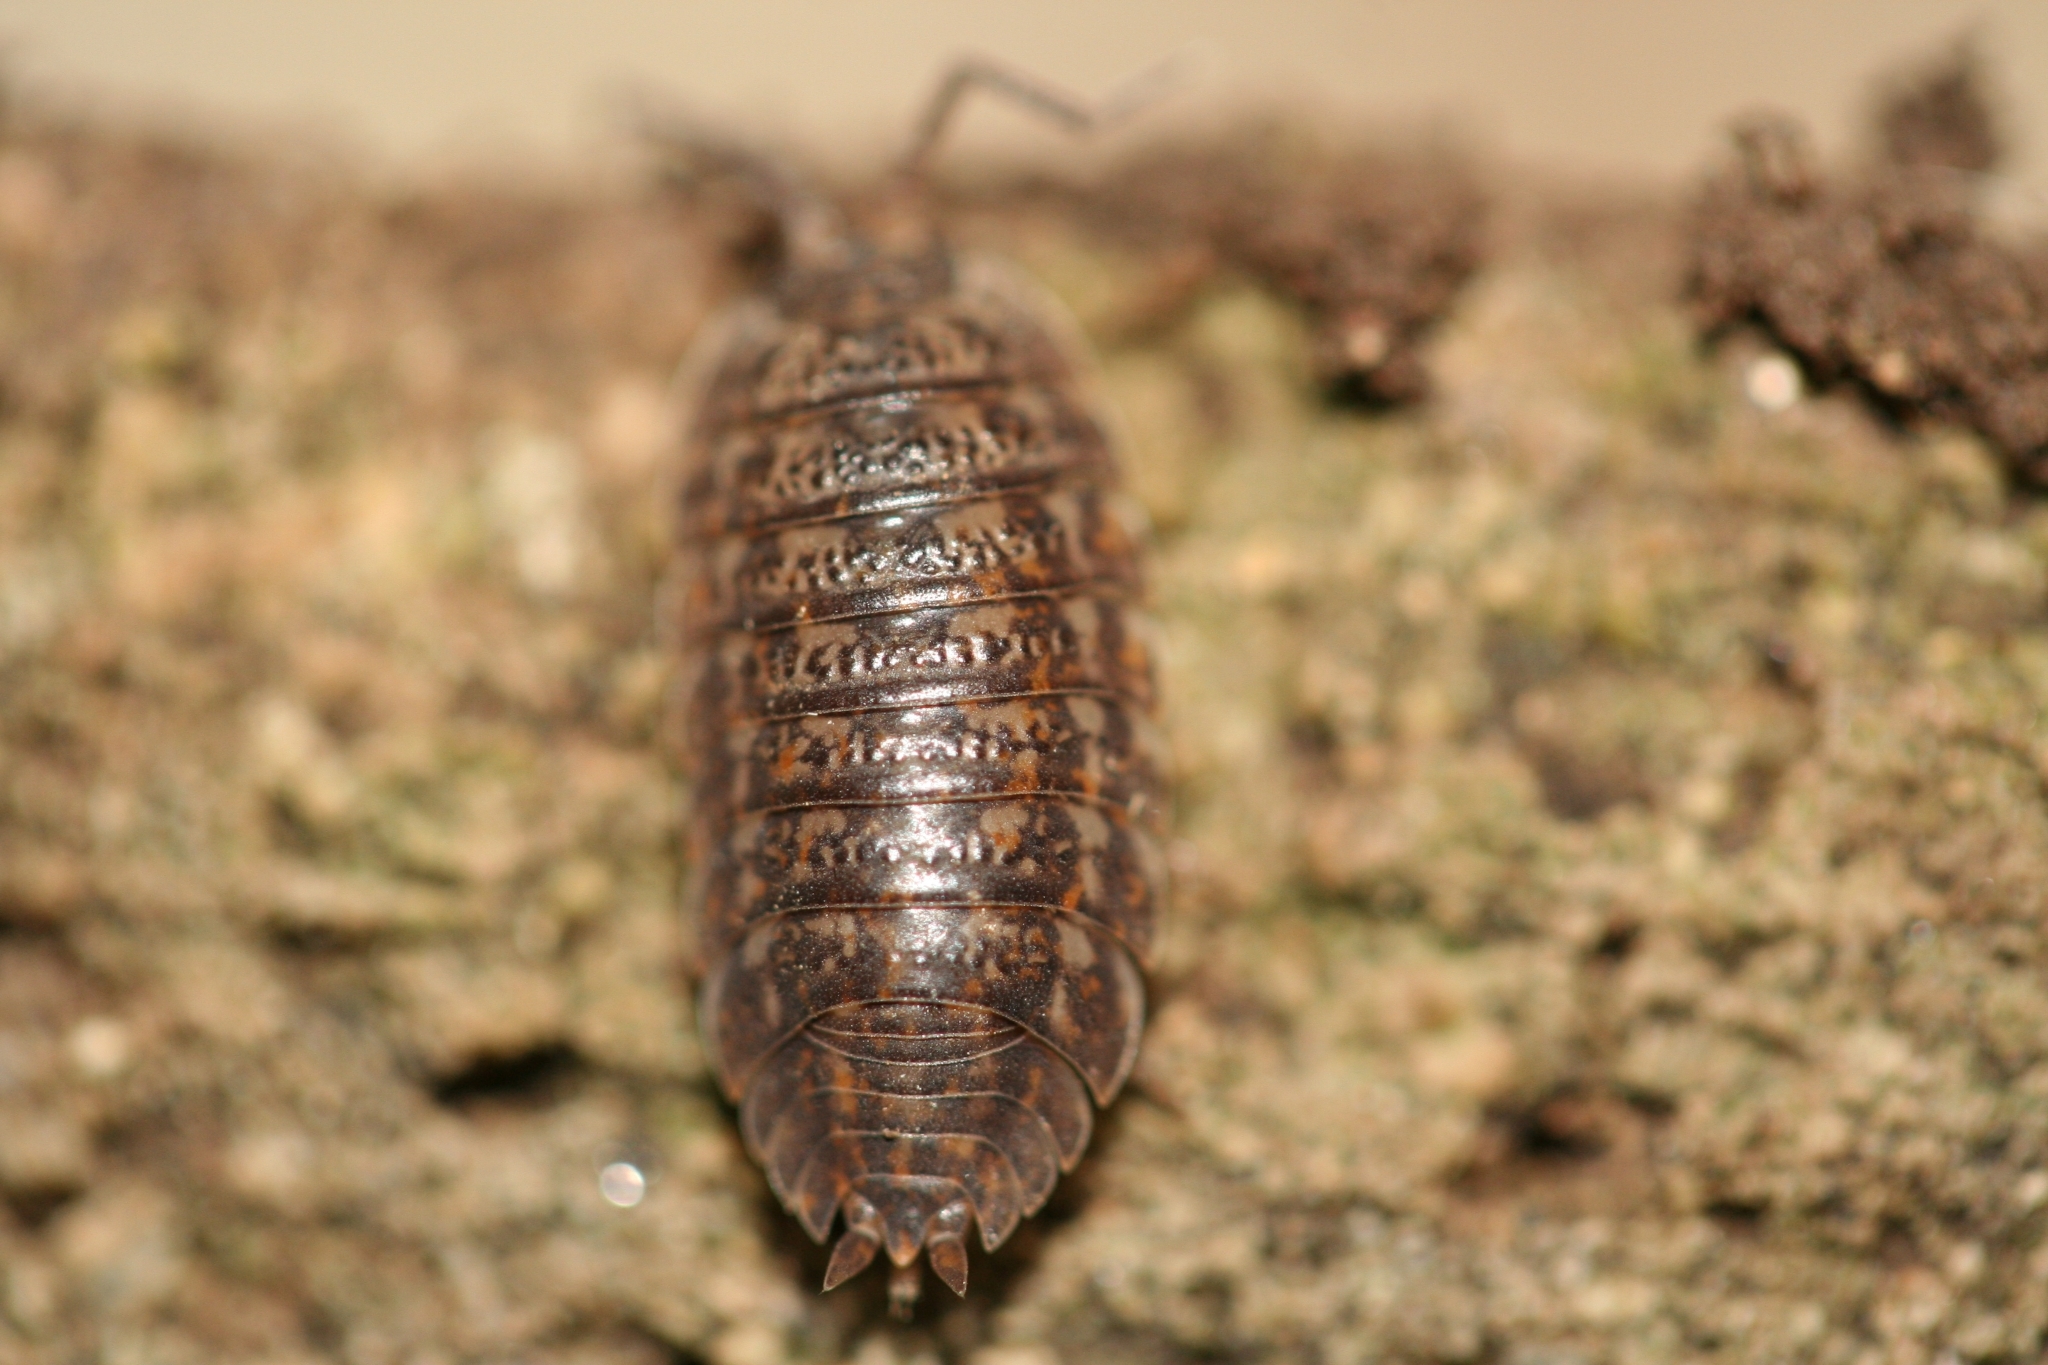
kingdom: Animalia
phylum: Arthropoda
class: Malacostraca
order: Isopoda
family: Trachelipodidae
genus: Trachelipus
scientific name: Trachelipus rathkii
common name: Isopod
